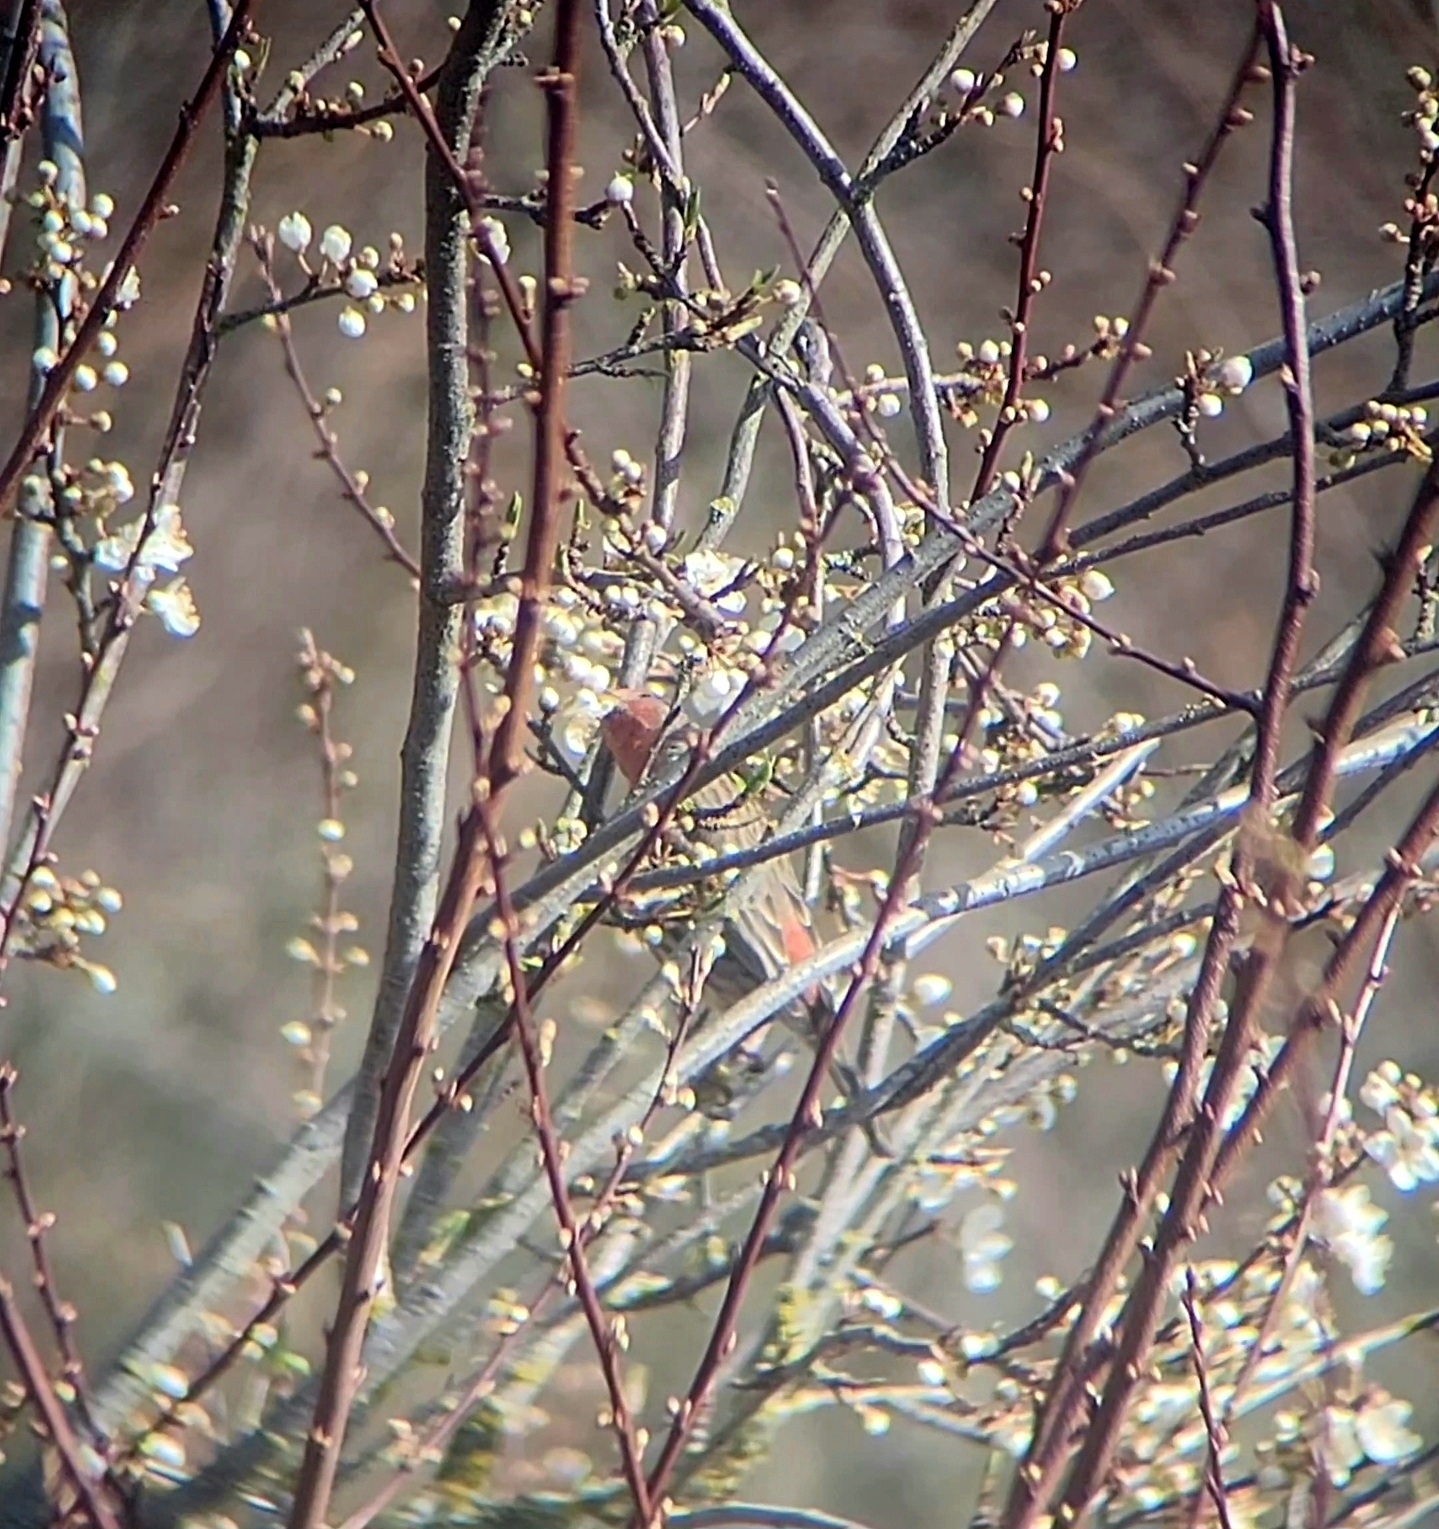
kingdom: Animalia
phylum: Chordata
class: Aves
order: Passeriformes
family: Fringillidae
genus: Haemorhous
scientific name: Haemorhous mexicanus
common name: House finch
